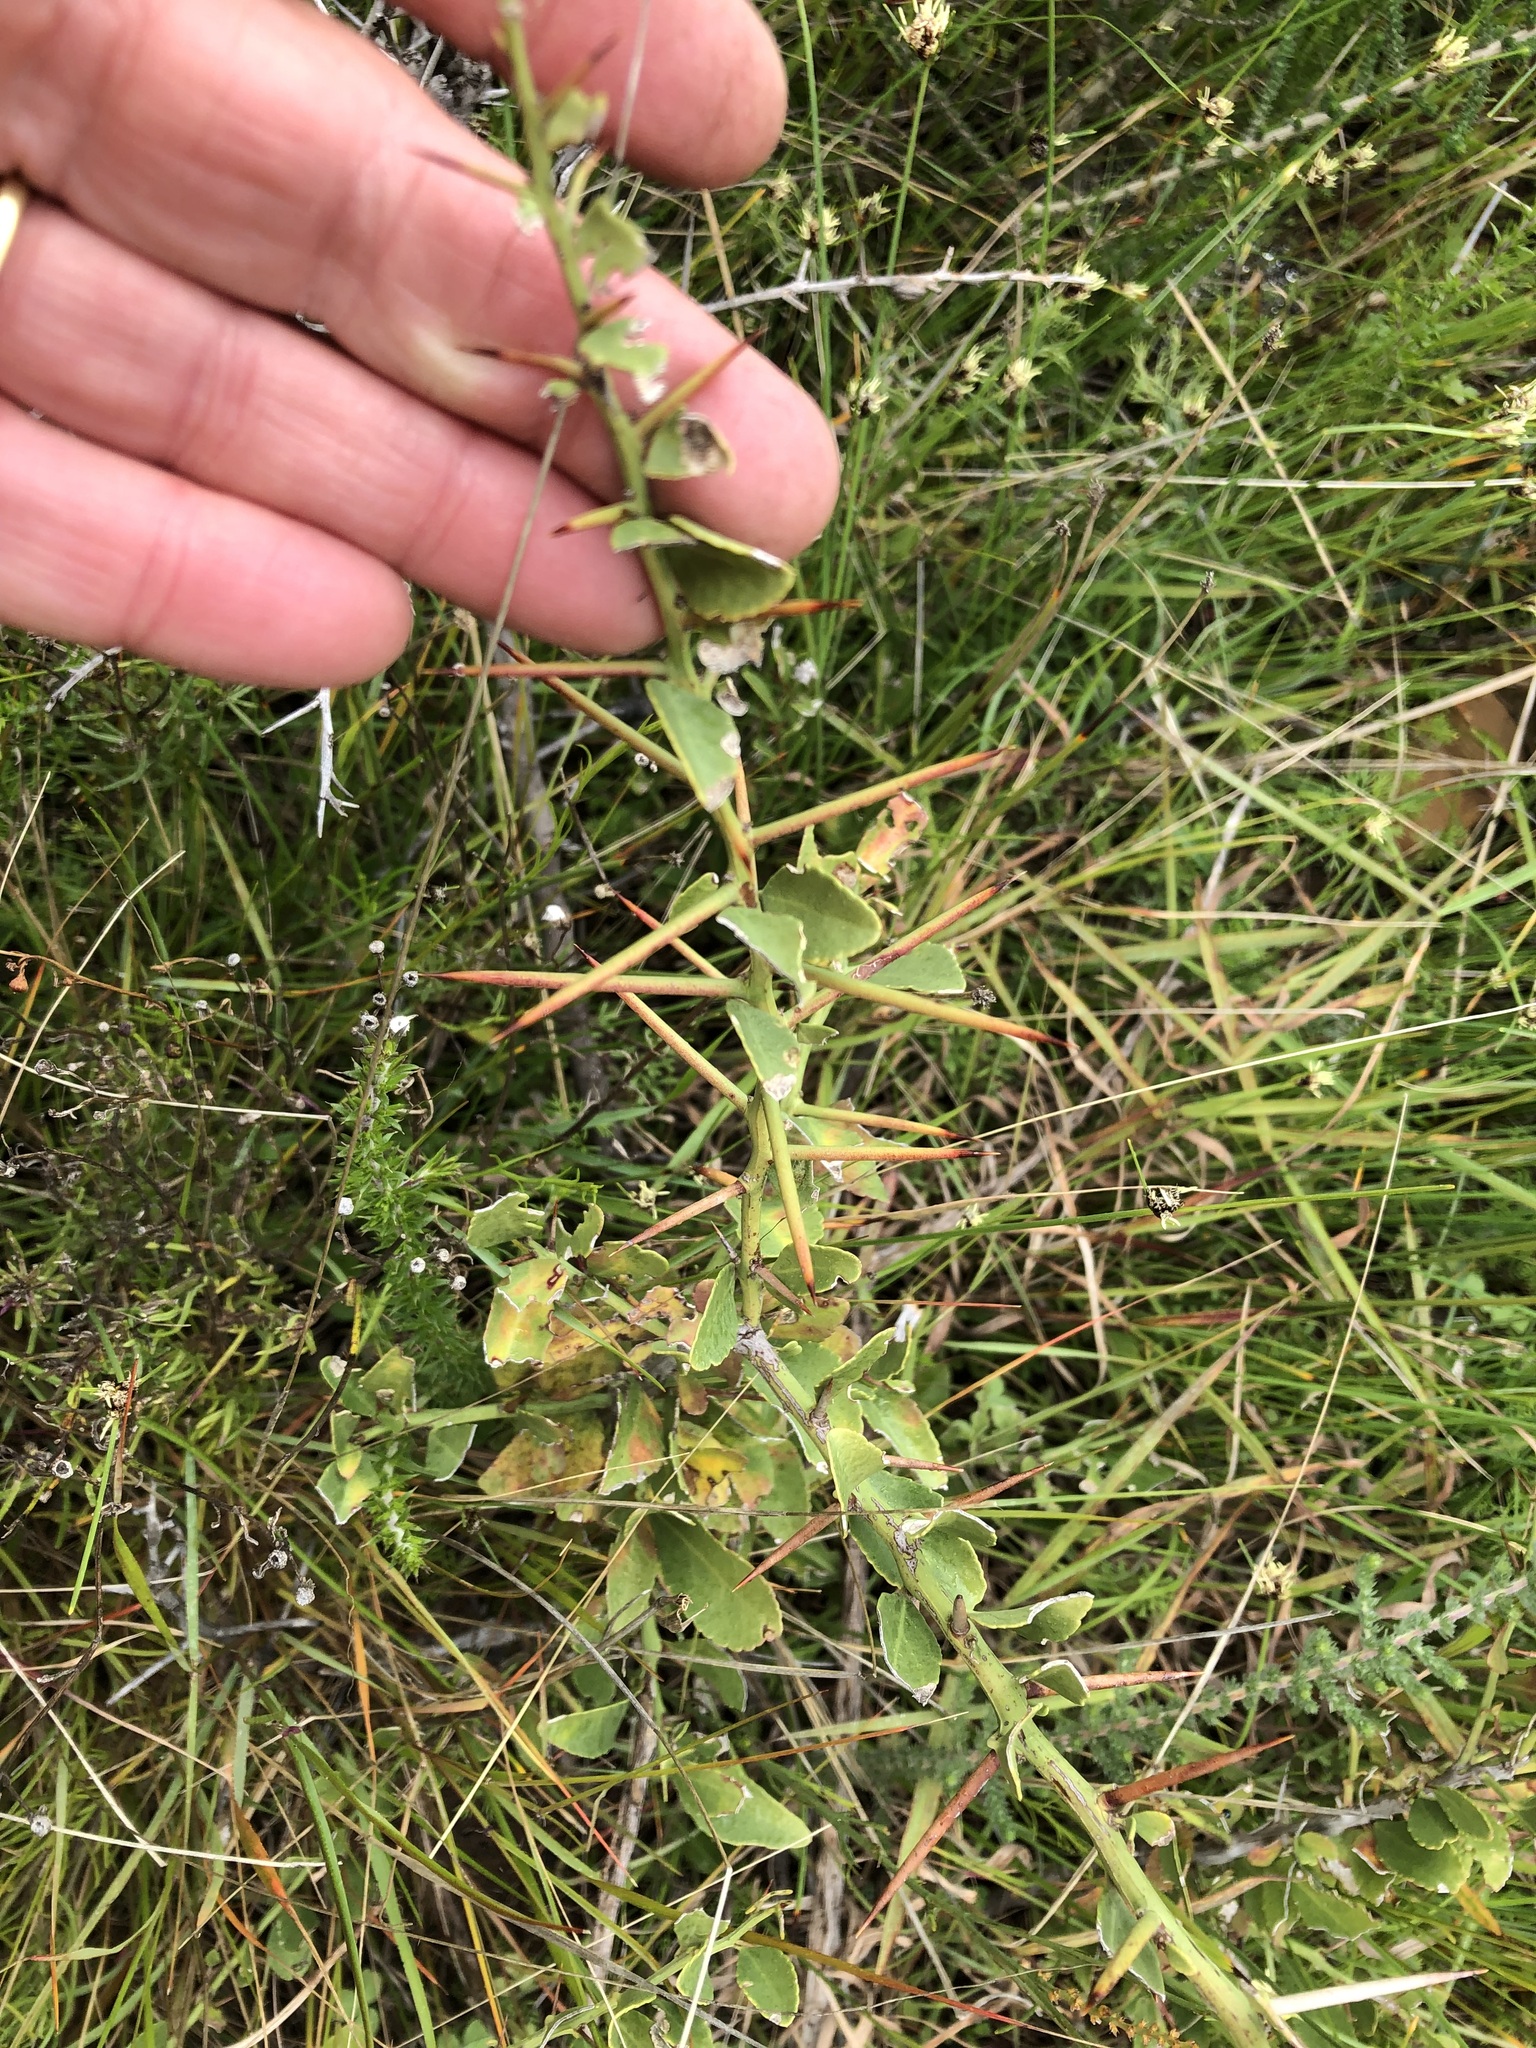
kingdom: Plantae
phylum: Tracheophyta
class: Magnoliopsida
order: Celastrales
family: Celastraceae
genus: Gymnosporia
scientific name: Gymnosporia buxifolia
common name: Common spike-thorn
